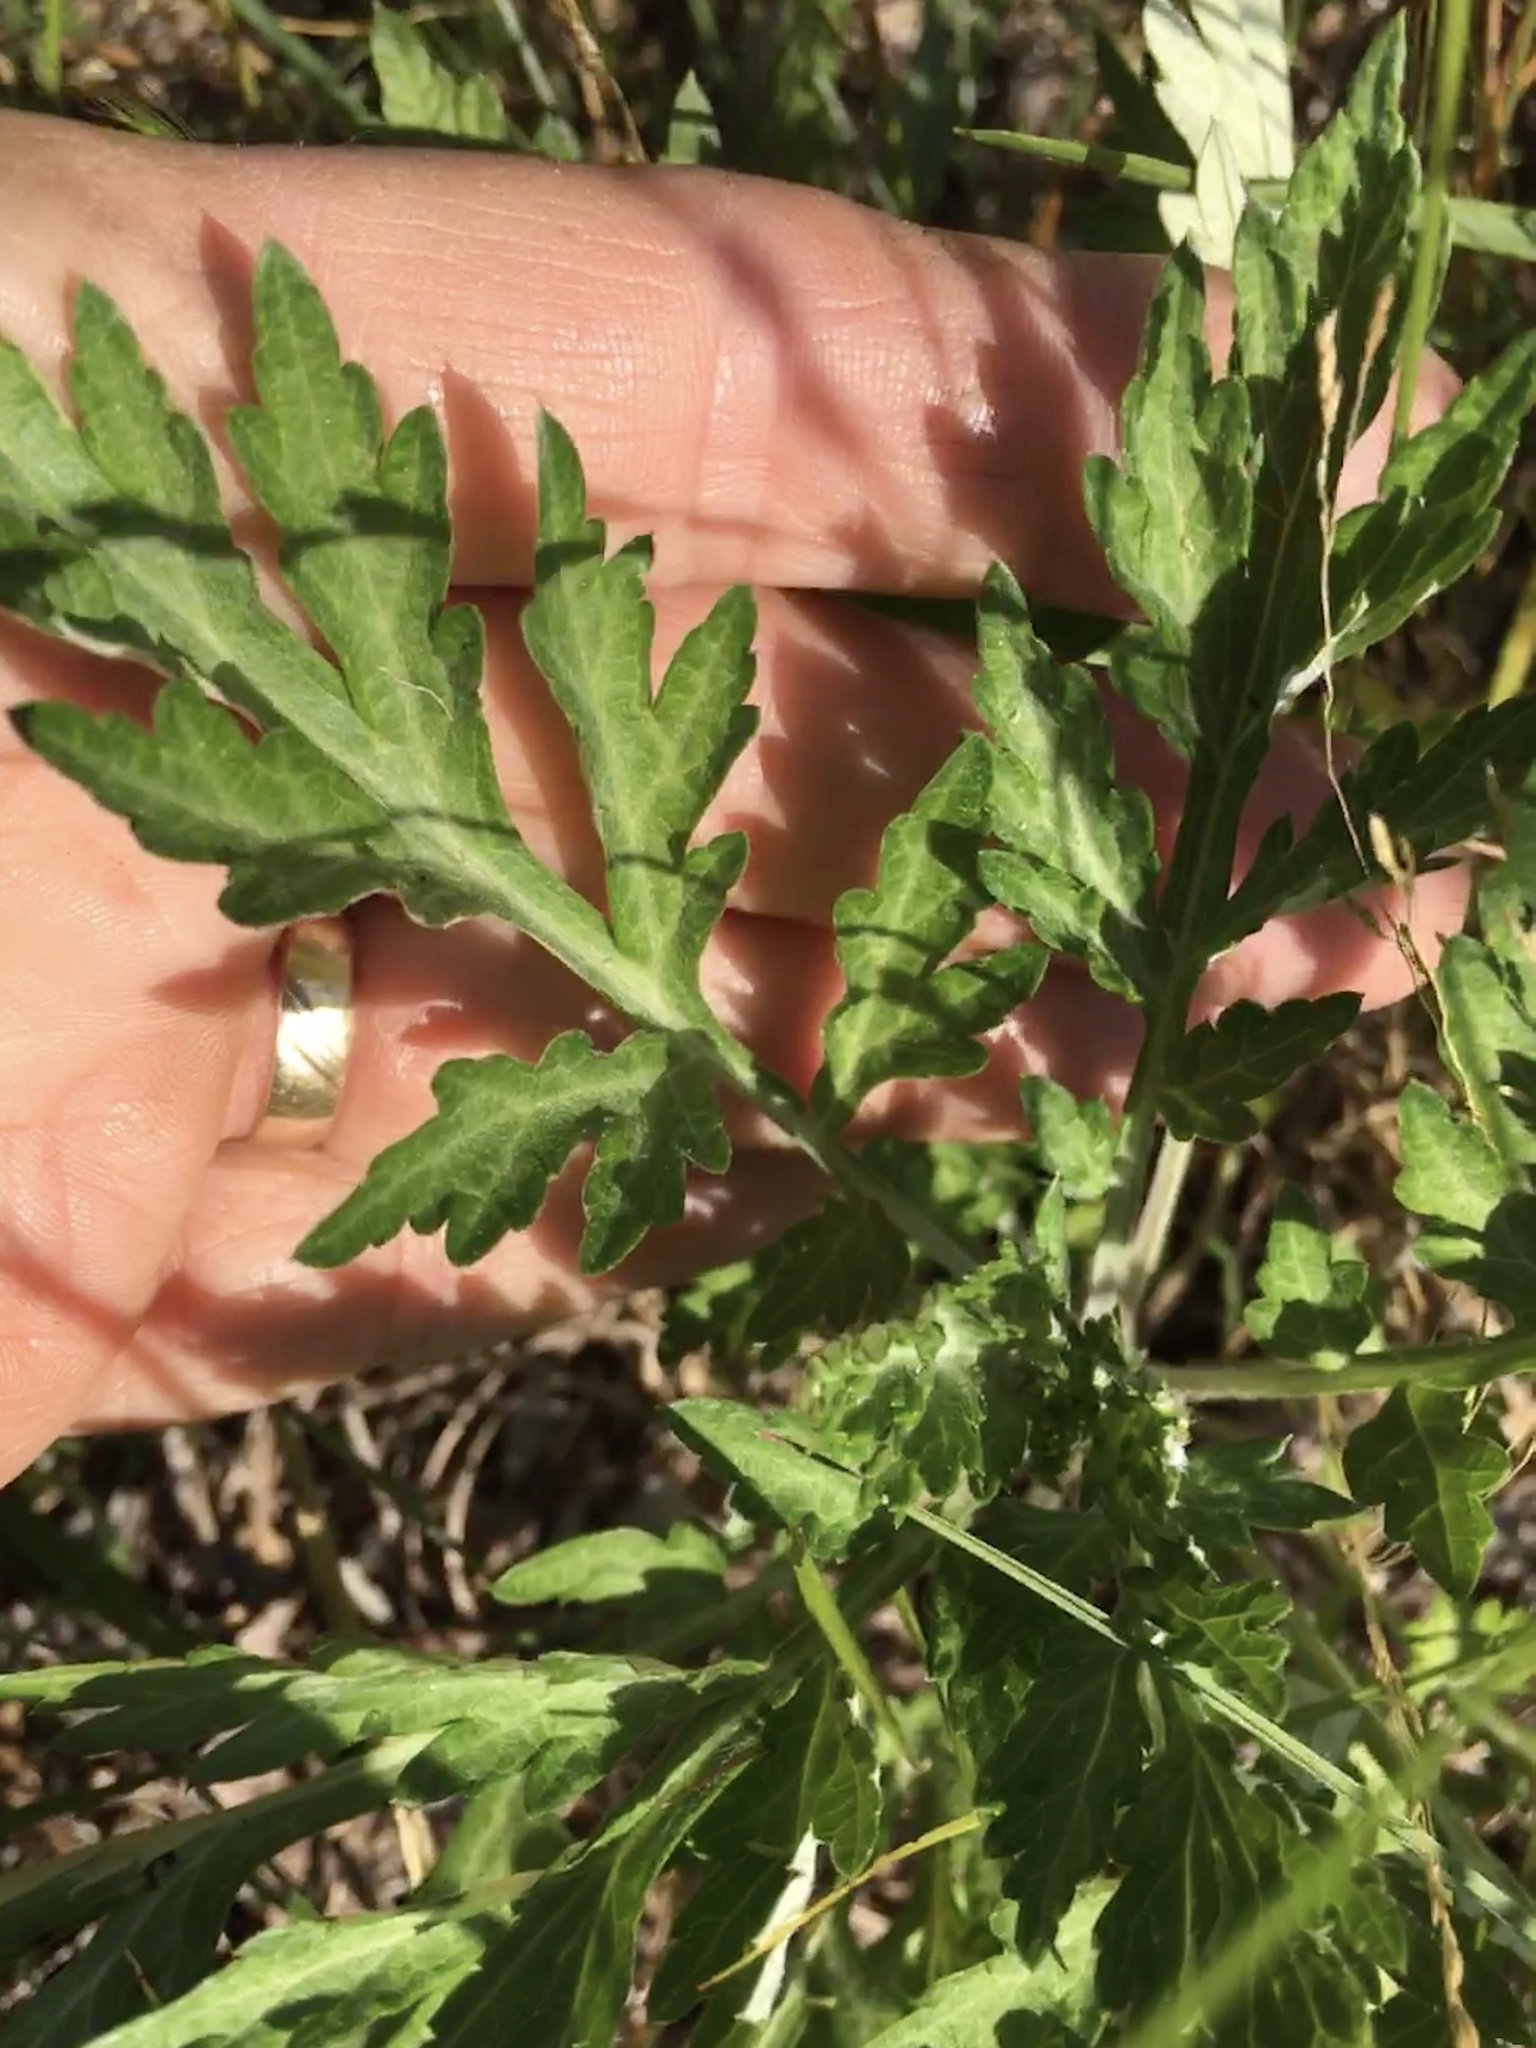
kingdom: Plantae
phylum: Tracheophyta
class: Magnoliopsida
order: Asterales
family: Asteraceae
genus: Artemisia
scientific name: Artemisia vulgaris
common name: Mugwort
